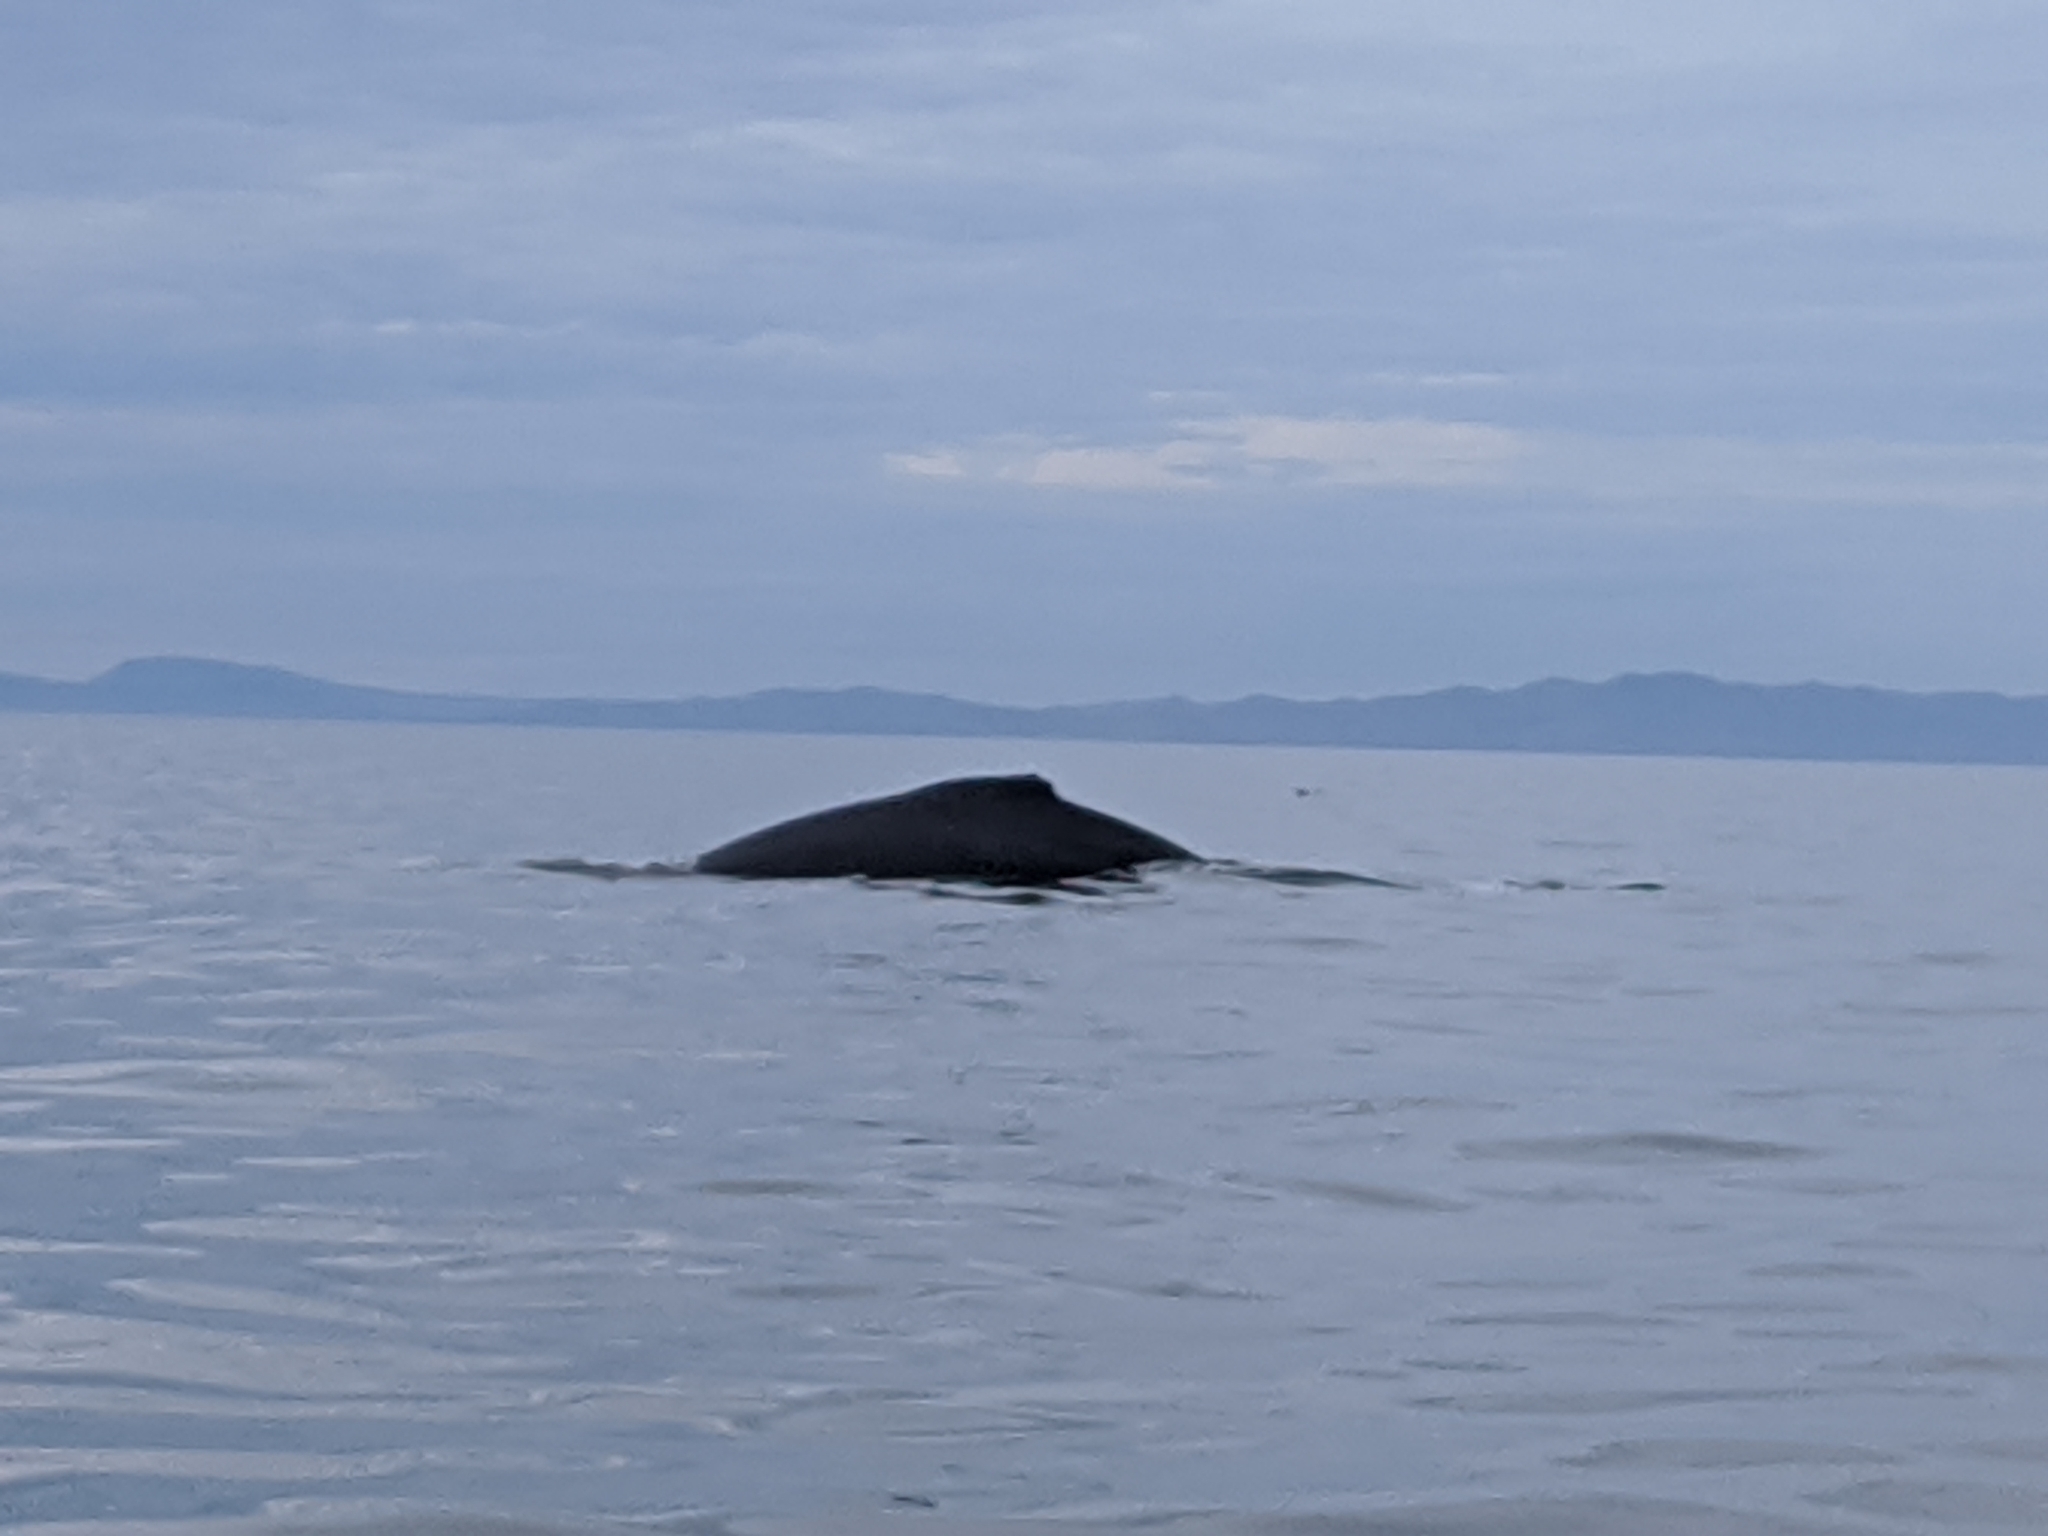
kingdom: Animalia
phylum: Chordata
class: Mammalia
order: Cetacea
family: Balaenopteridae
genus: Megaptera
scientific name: Megaptera novaeangliae
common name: Humpback whale
